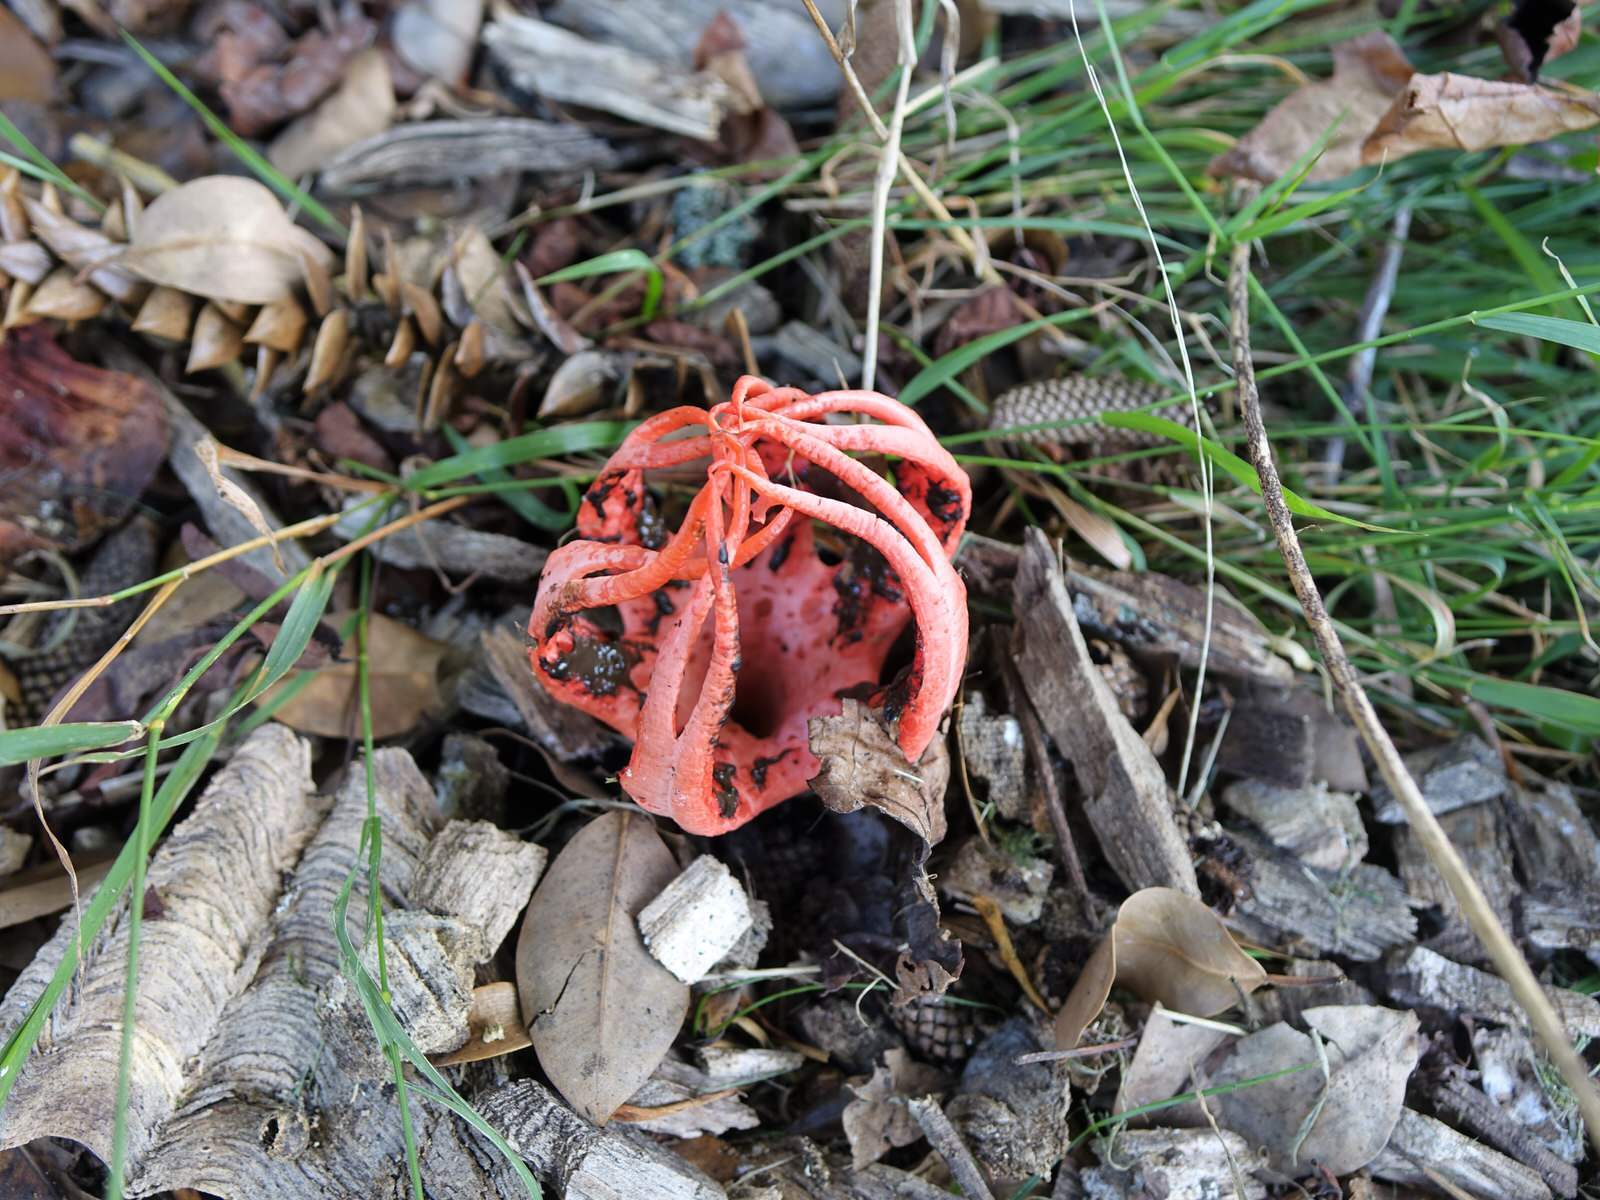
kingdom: Fungi
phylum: Basidiomycota
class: Agaricomycetes
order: Phallales
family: Phallaceae
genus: Clathrus
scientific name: Clathrus archeri
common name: Devil's fingers
